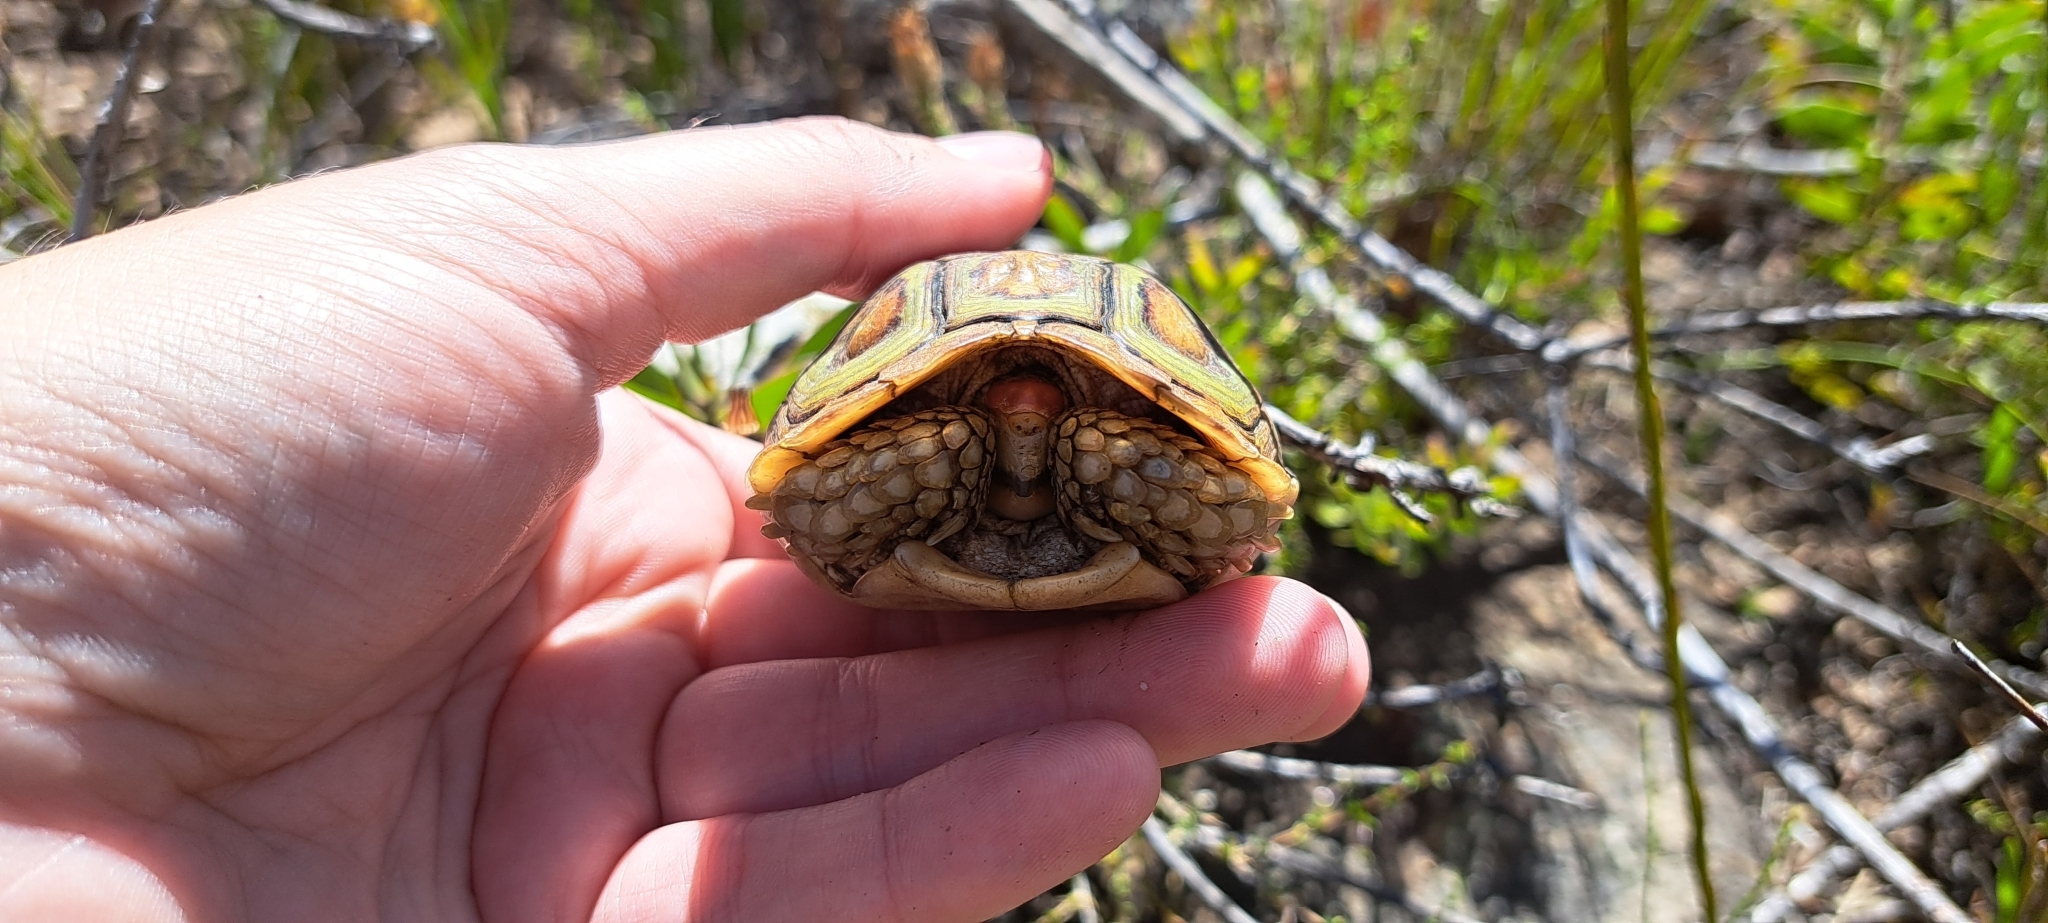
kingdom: Animalia
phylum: Chordata
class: Testudines
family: Testudinidae
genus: Homopus
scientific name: Homopus areolatus
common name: Parrot-beaked tortoise
